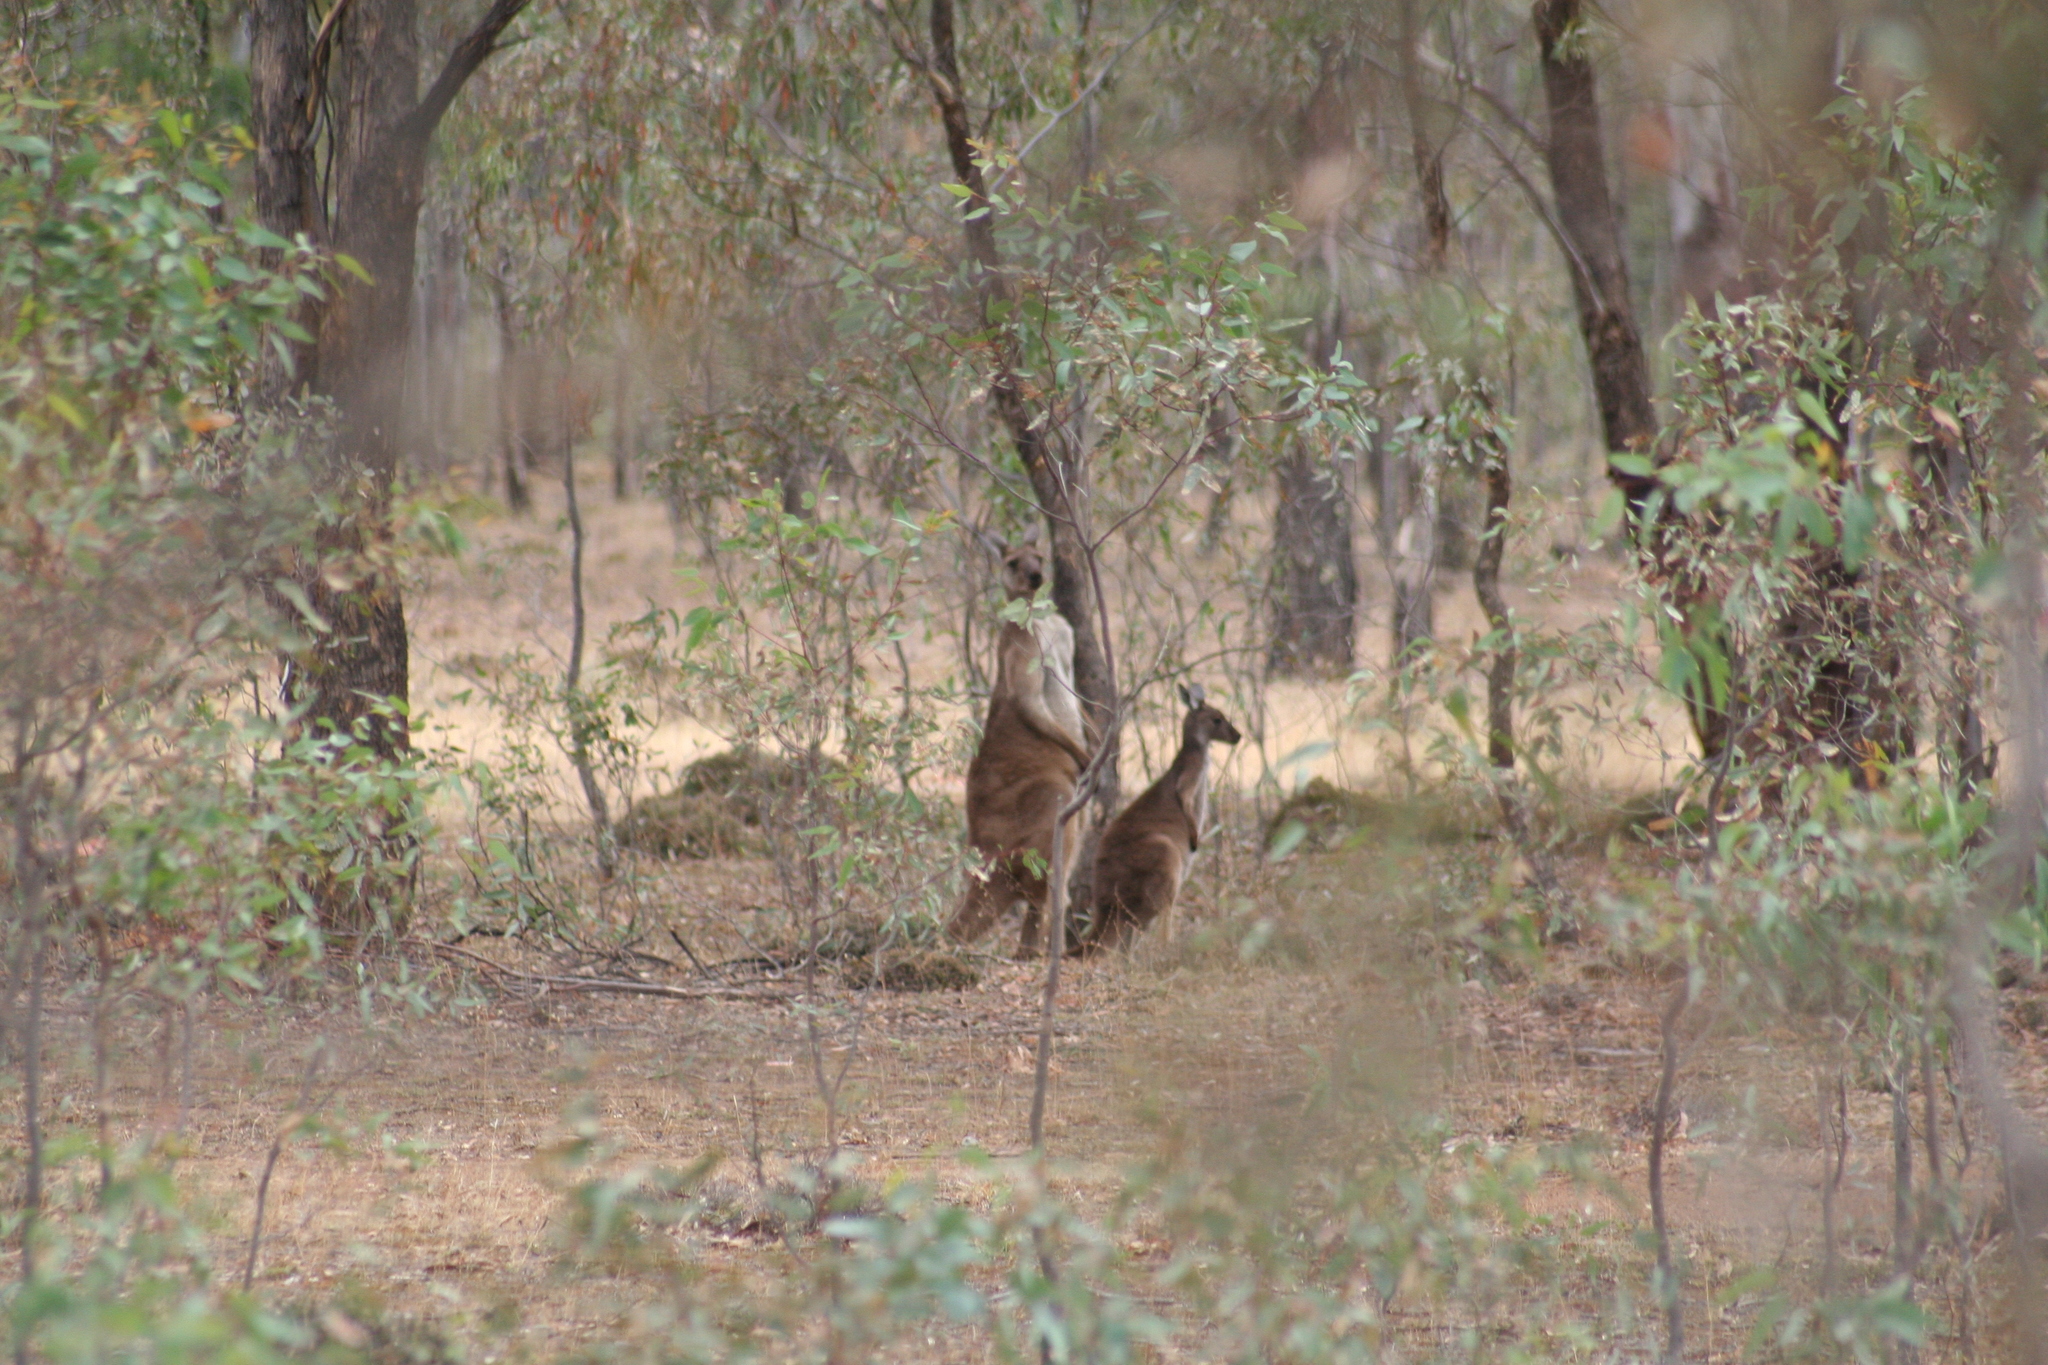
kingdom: Animalia
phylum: Chordata
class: Mammalia
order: Diprotodontia
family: Macropodidae
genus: Macropus
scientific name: Macropus fuliginosus
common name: Western grey kangaroo
